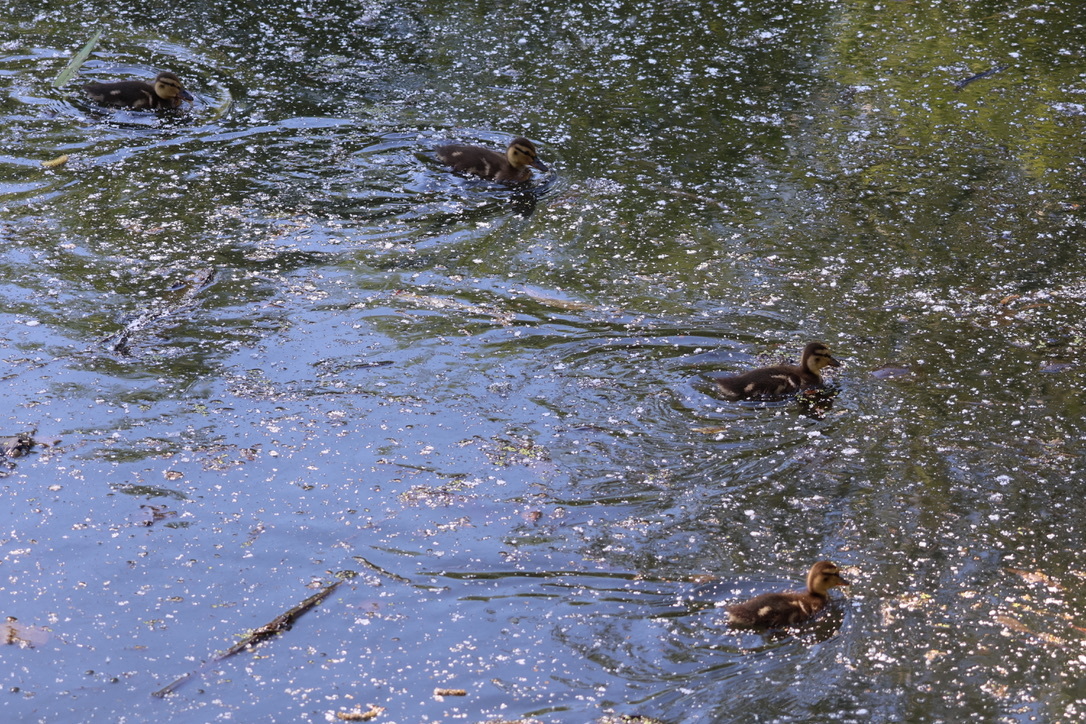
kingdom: Animalia
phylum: Chordata
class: Aves
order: Anseriformes
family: Anatidae
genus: Anas
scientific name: Anas platyrhynchos
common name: Mallard
